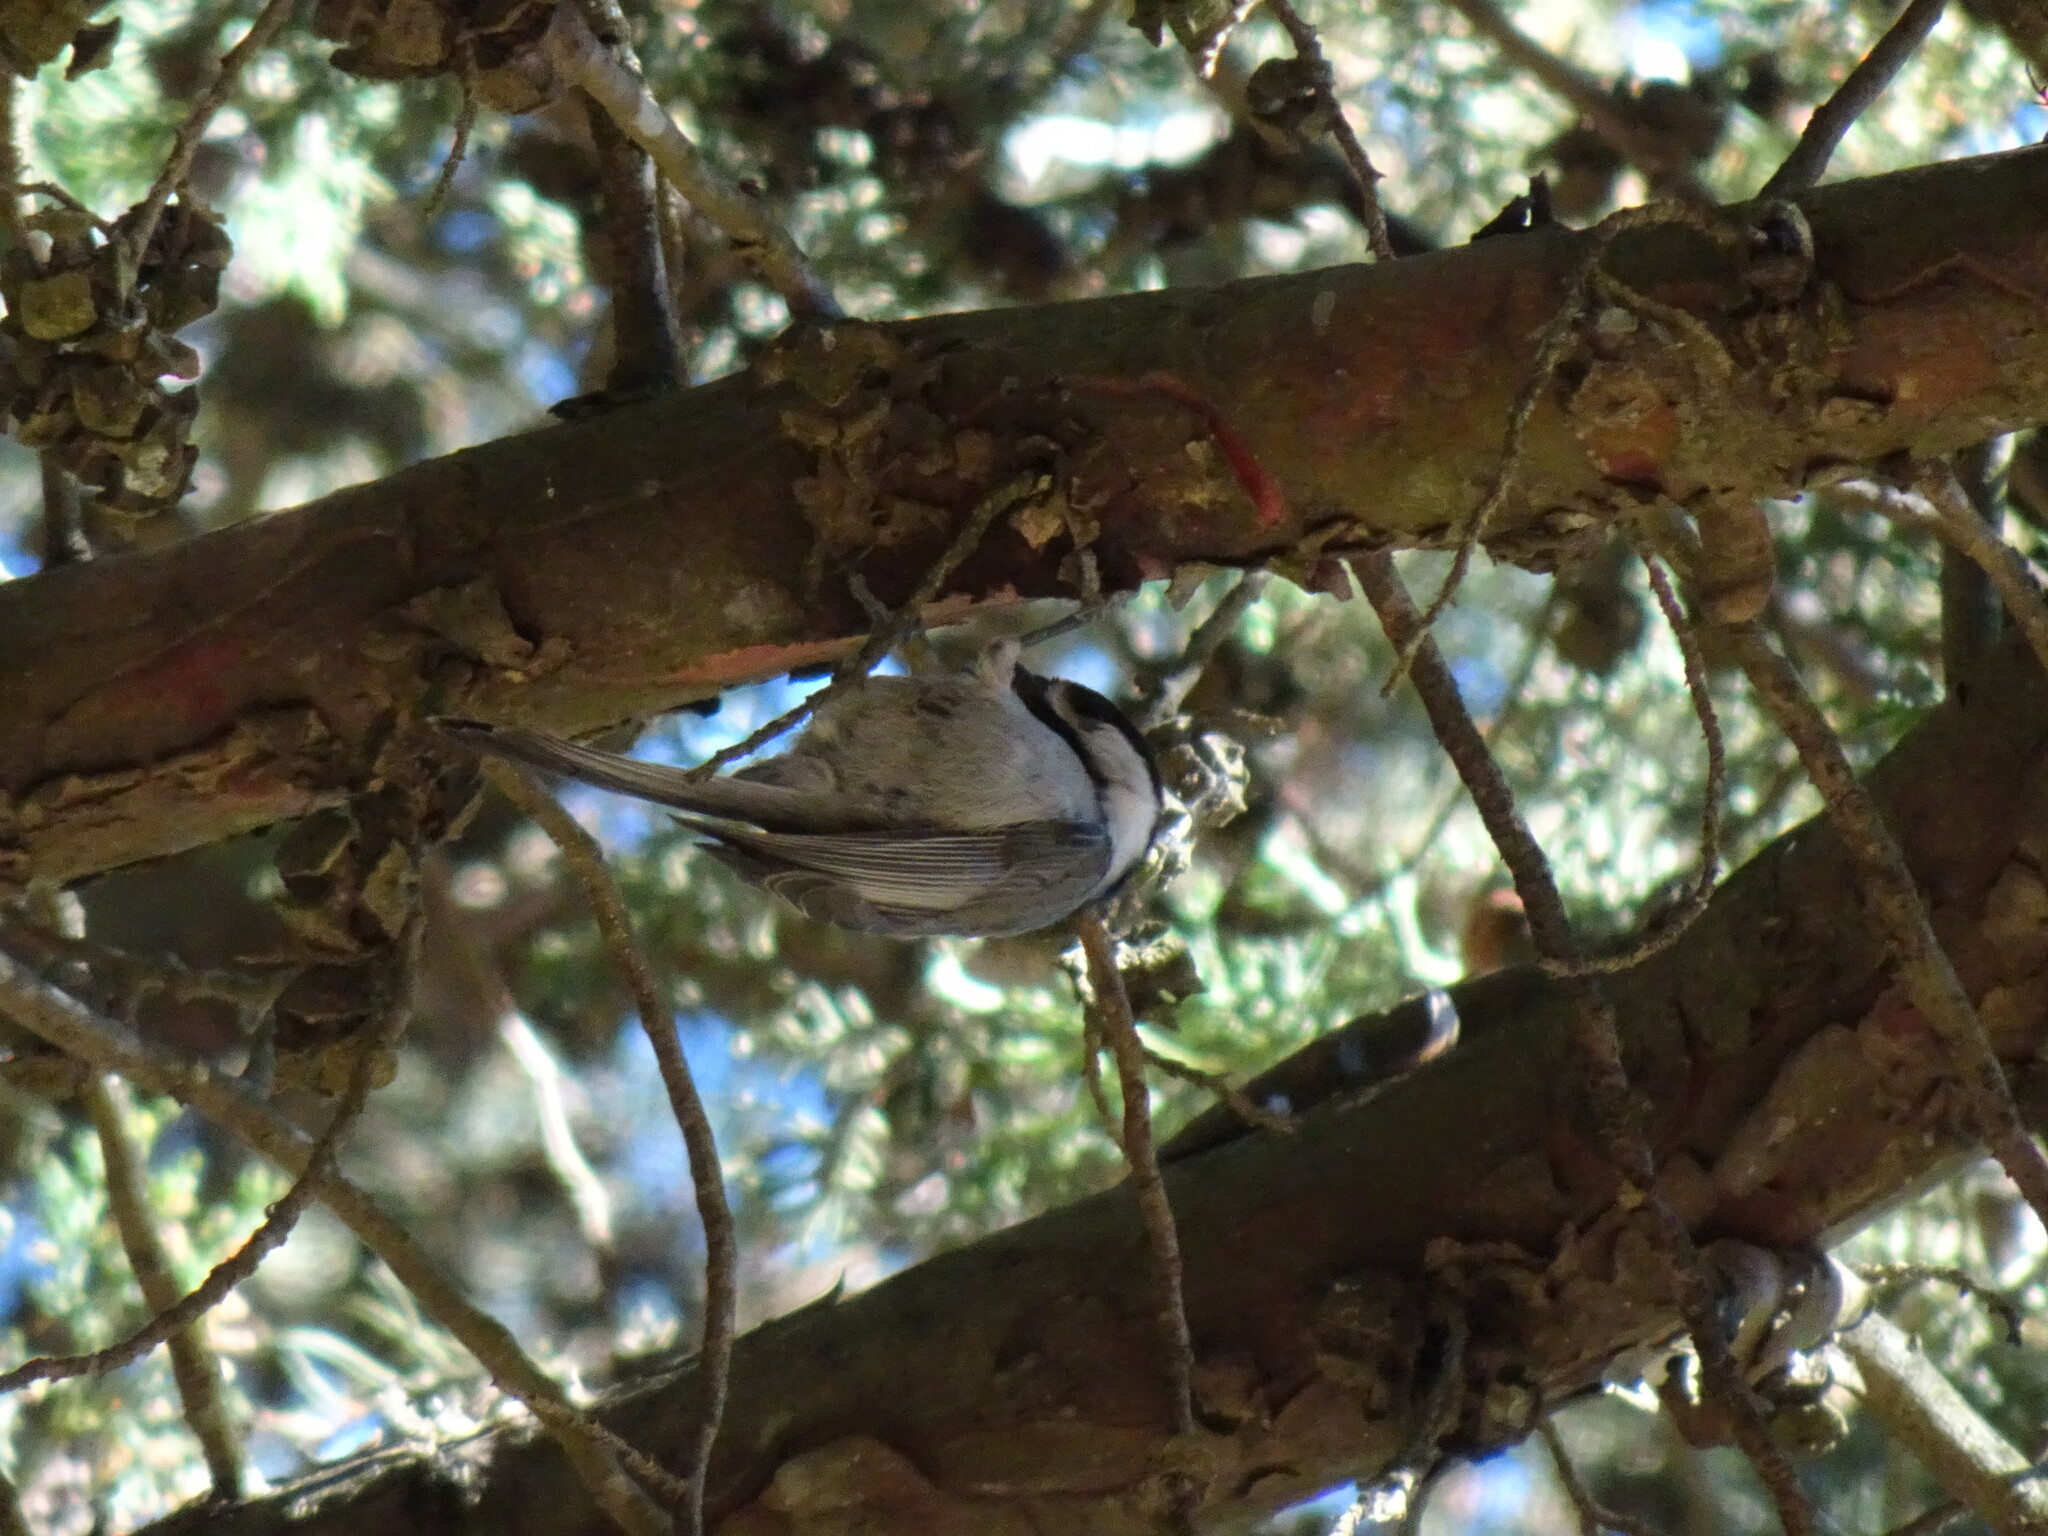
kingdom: Animalia
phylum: Chordata
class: Aves
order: Passeriformes
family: Paridae
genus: Poecile
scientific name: Poecile sclateri
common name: Mexican chickadee
